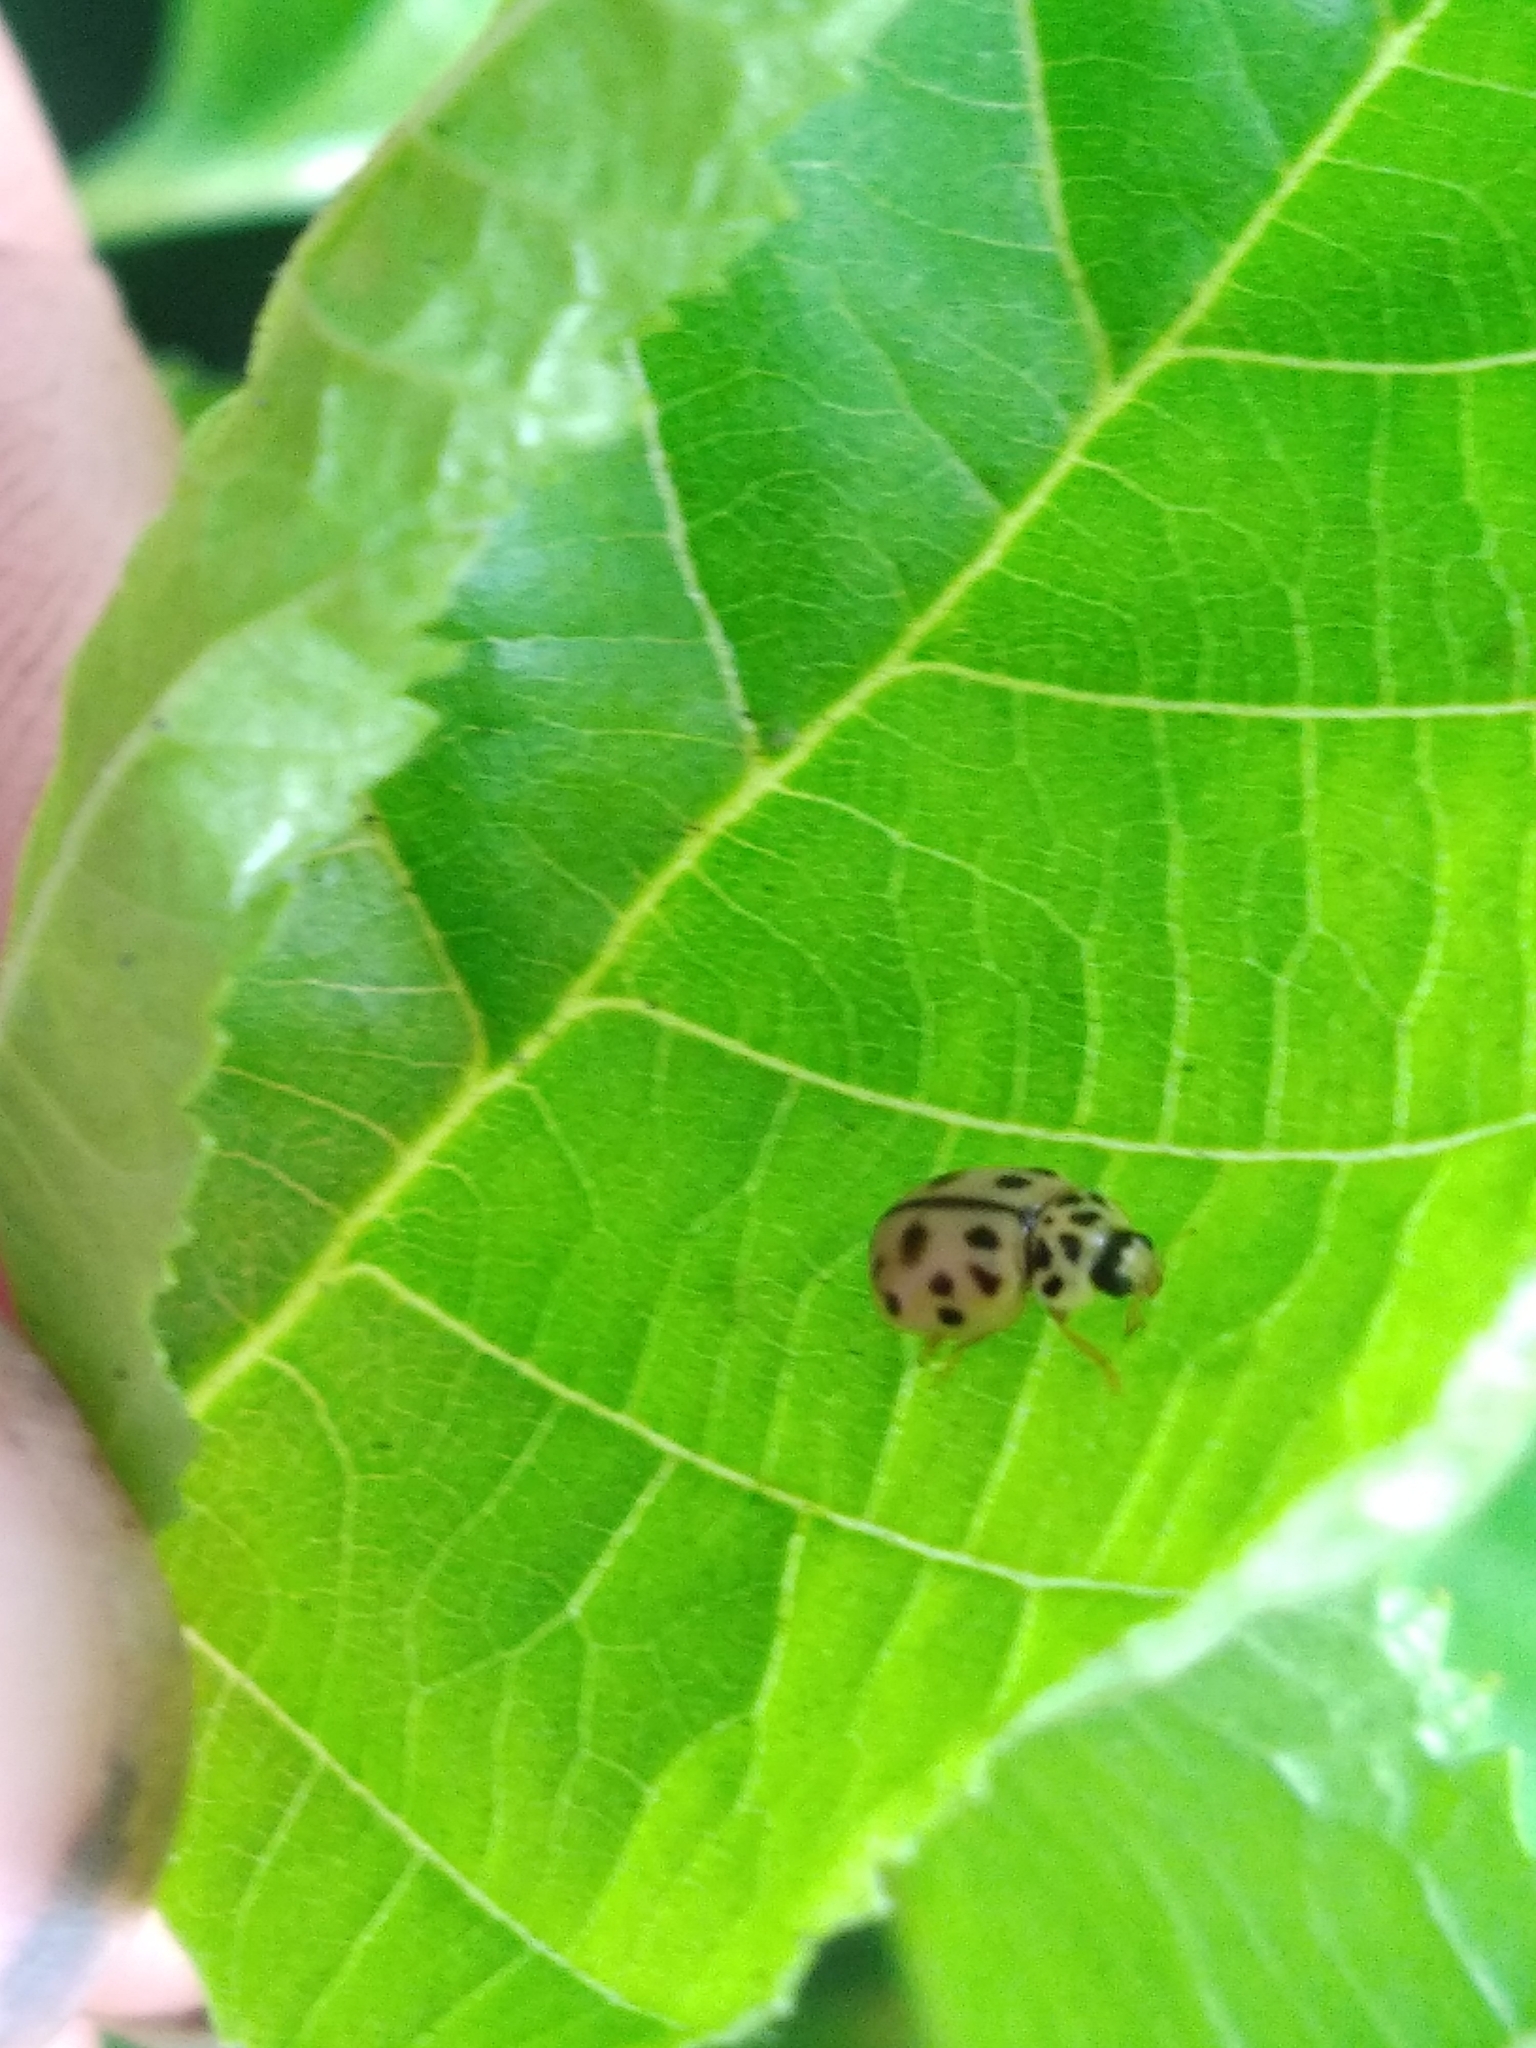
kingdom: Animalia
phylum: Arthropoda
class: Insecta
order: Coleoptera
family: Coccinellidae
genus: Oenopia
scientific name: Oenopia conglobata
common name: Ladybird beetle
